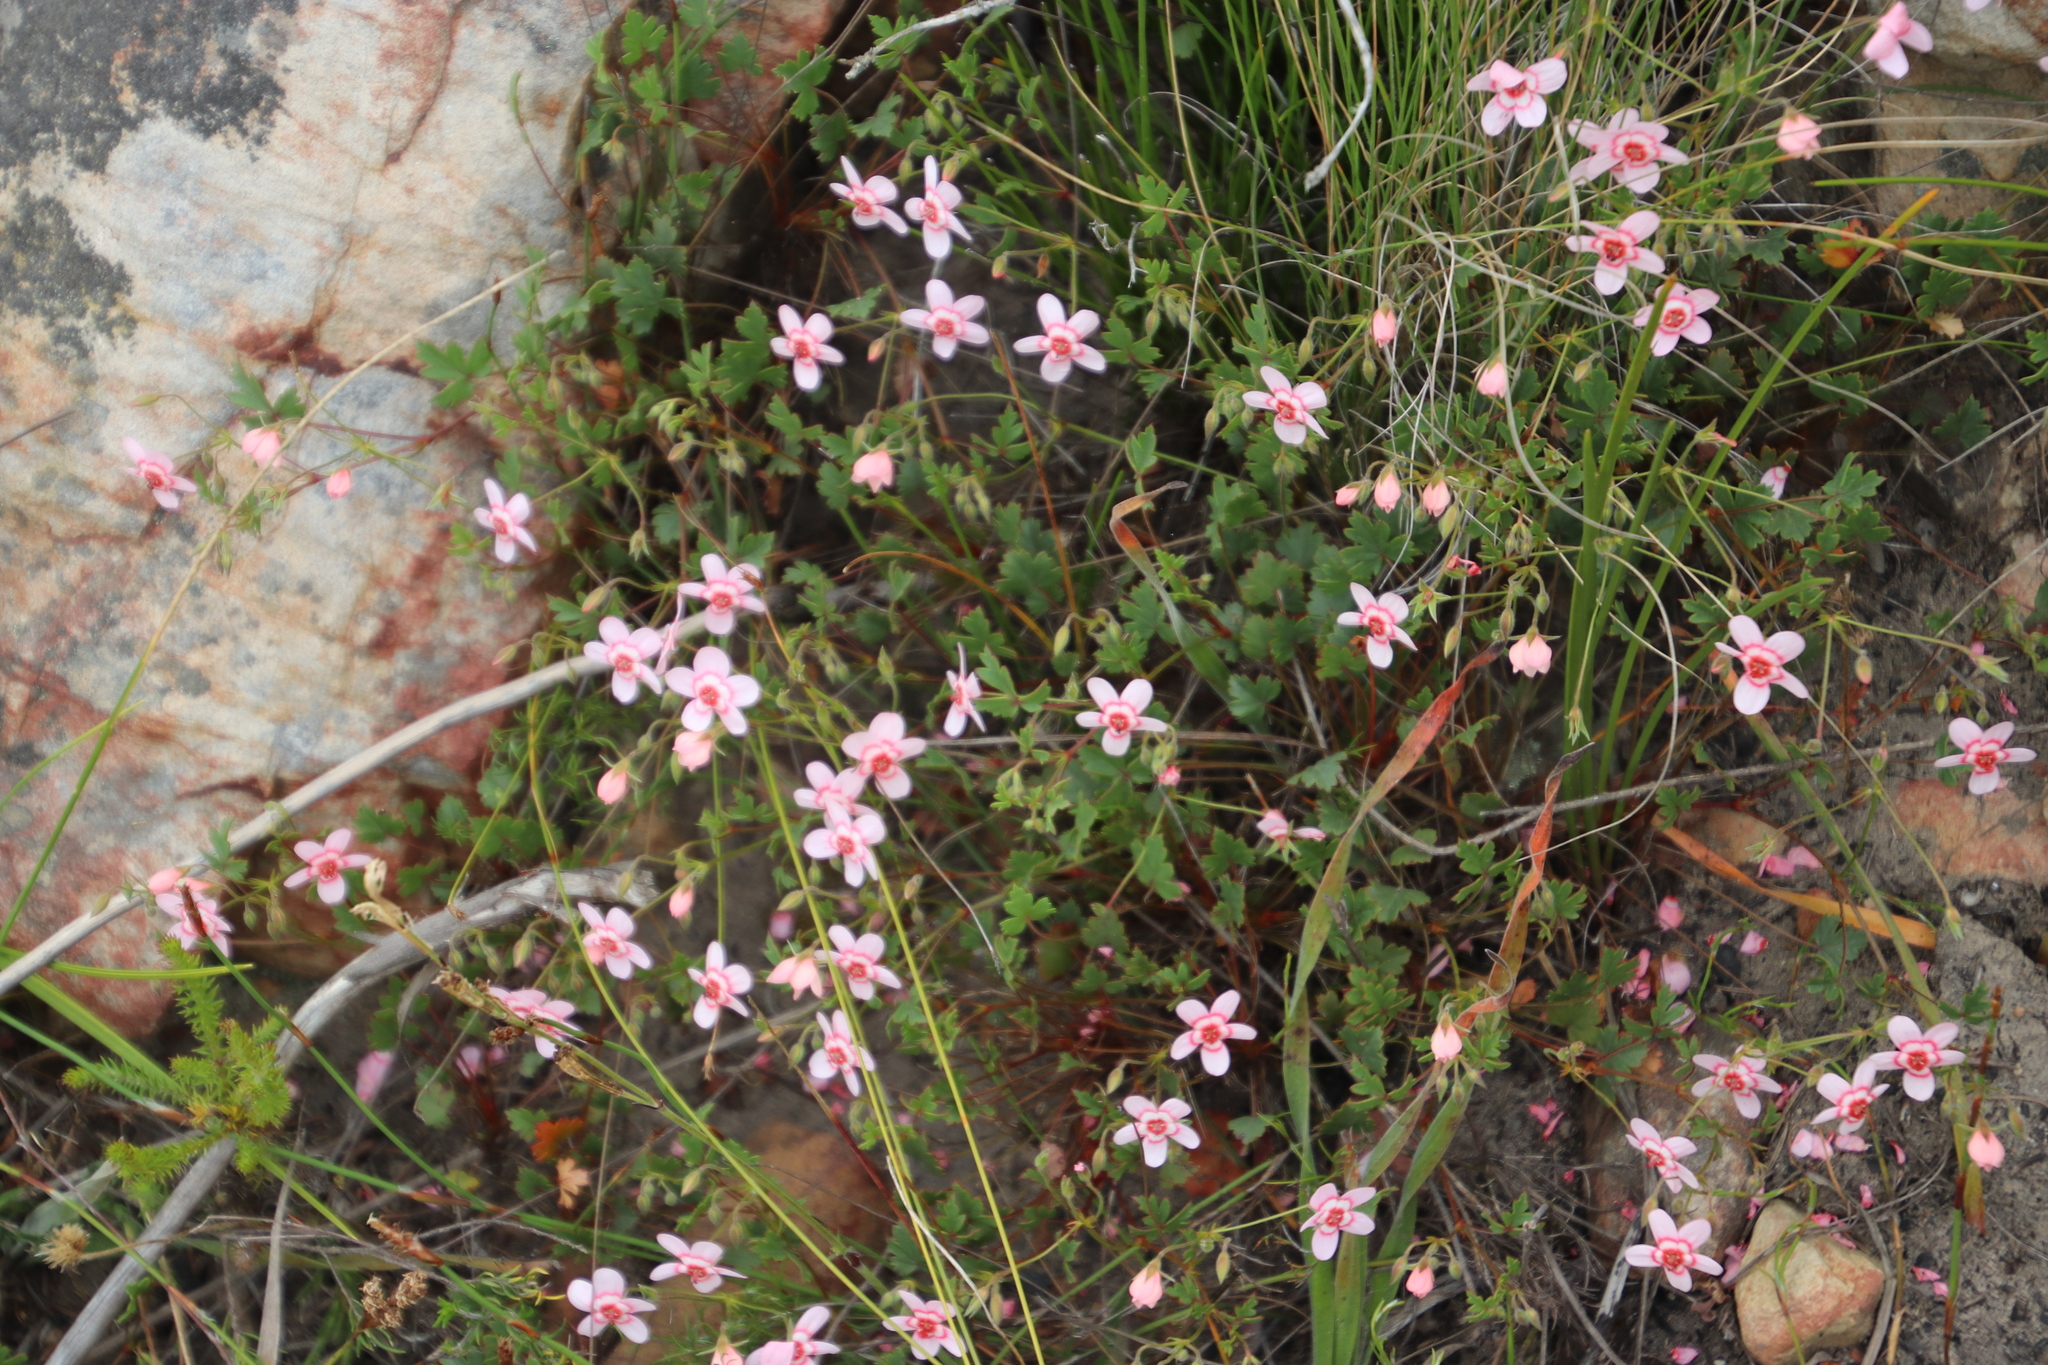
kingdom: Plantae
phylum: Tracheophyta
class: Magnoliopsida
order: Geraniales
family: Geraniaceae
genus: Pelargonium
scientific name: Pelargonium incarnatum
